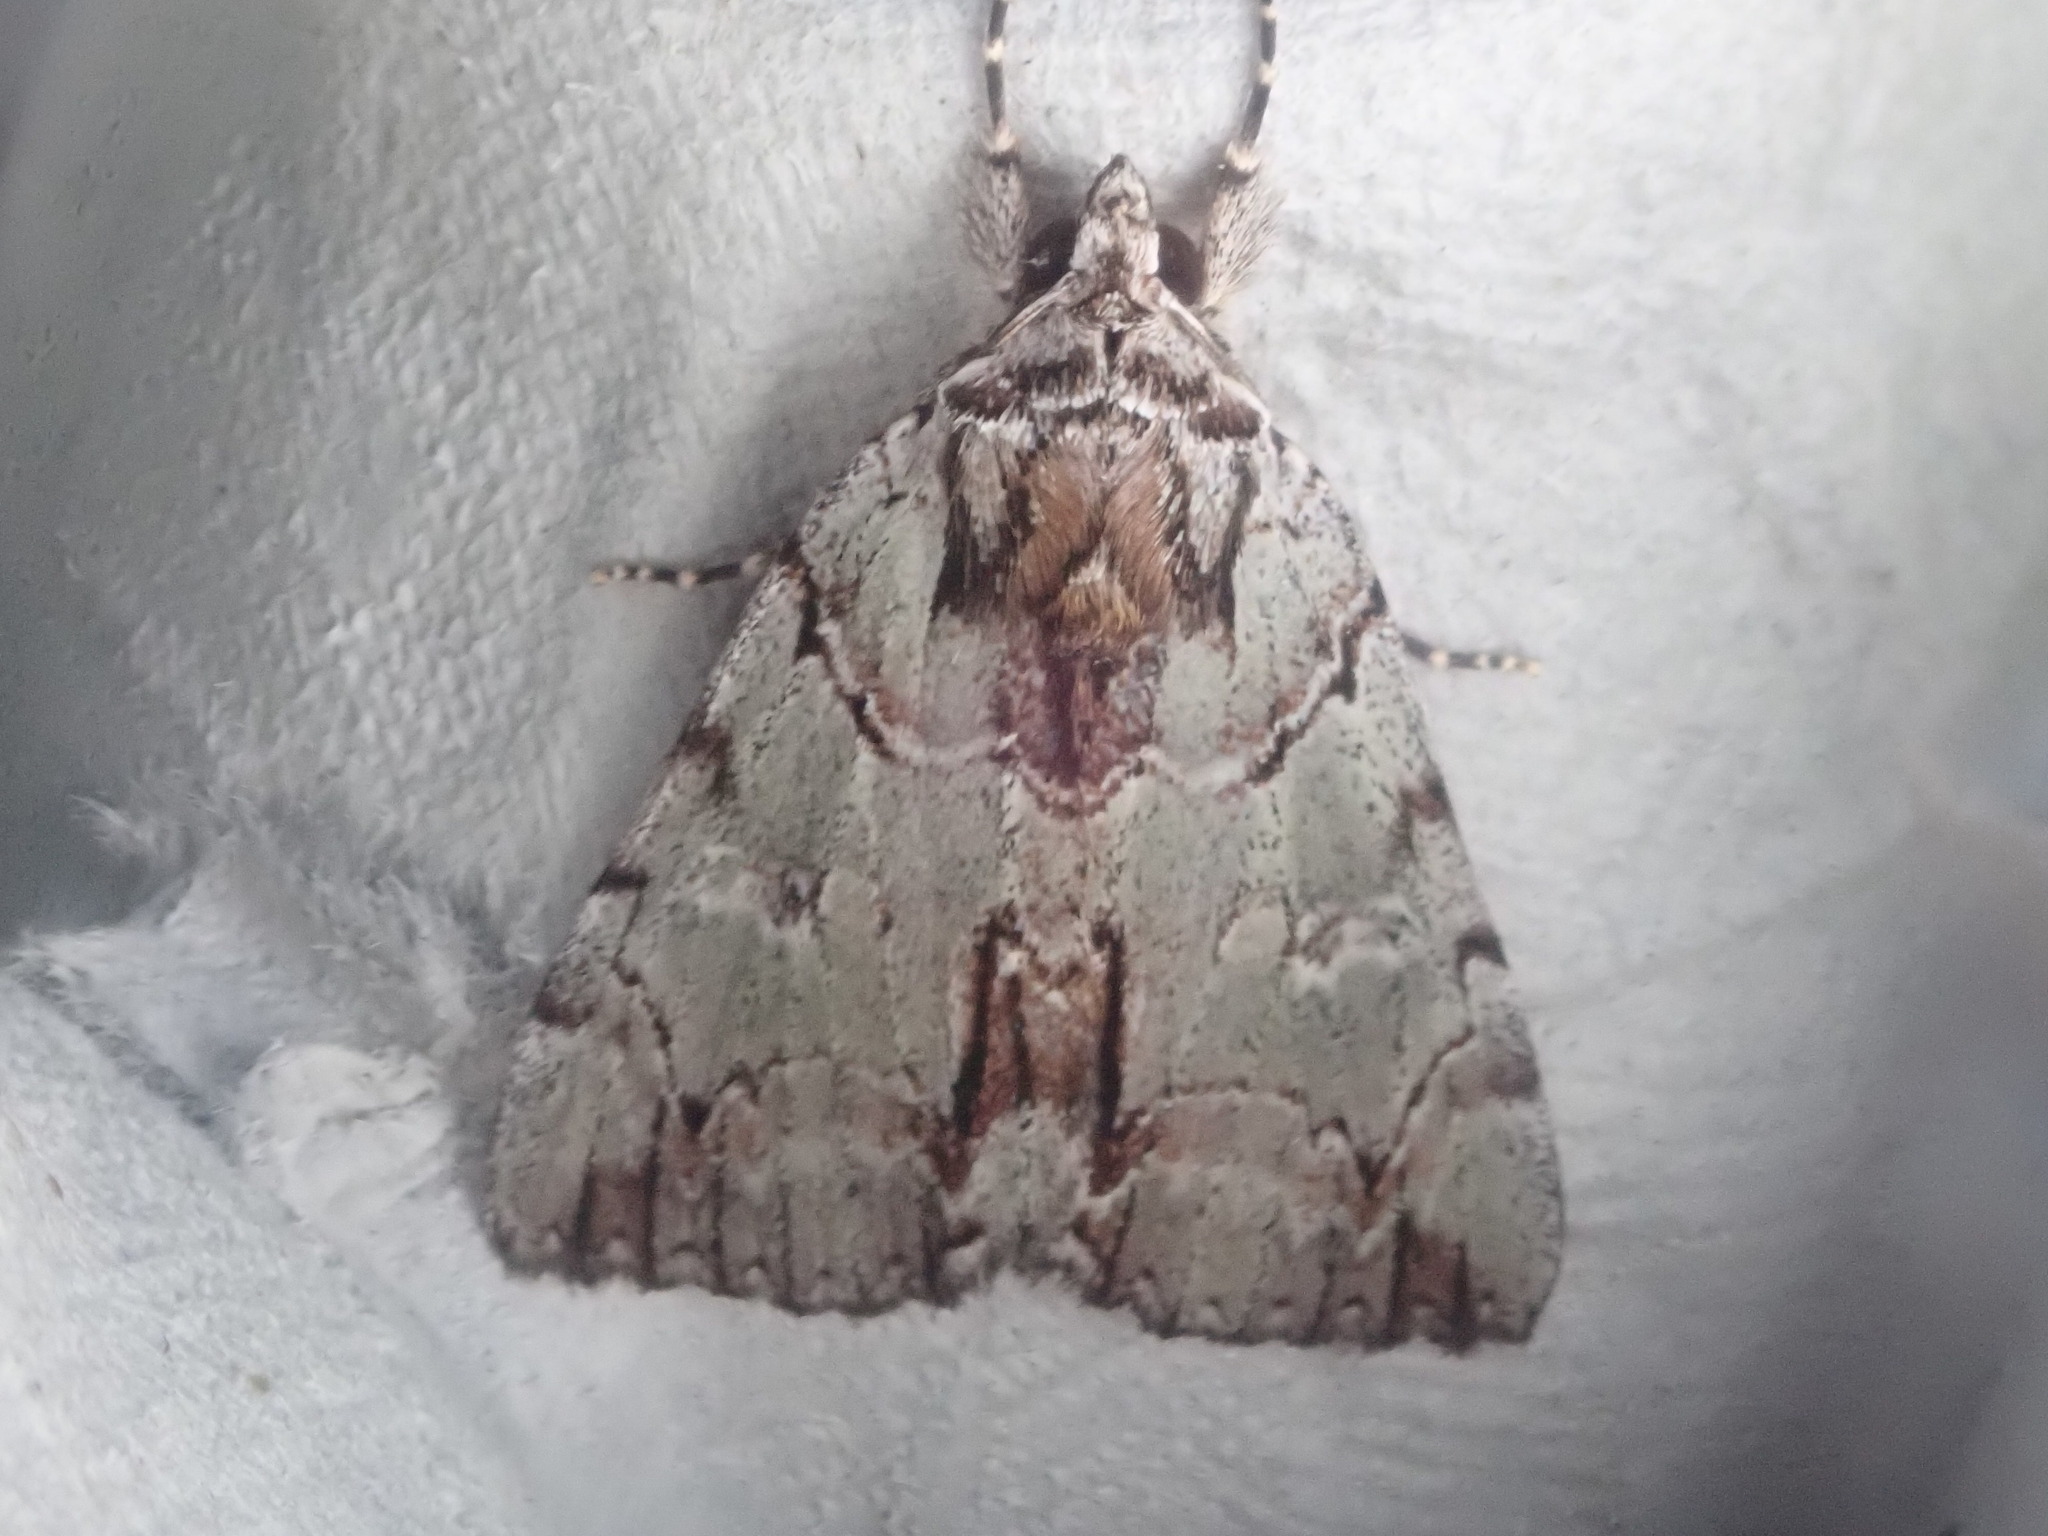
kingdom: Animalia
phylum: Arthropoda
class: Insecta
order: Lepidoptera
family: Erebidae
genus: Catocala
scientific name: Catocala praeclara
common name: Praeclara underwing
